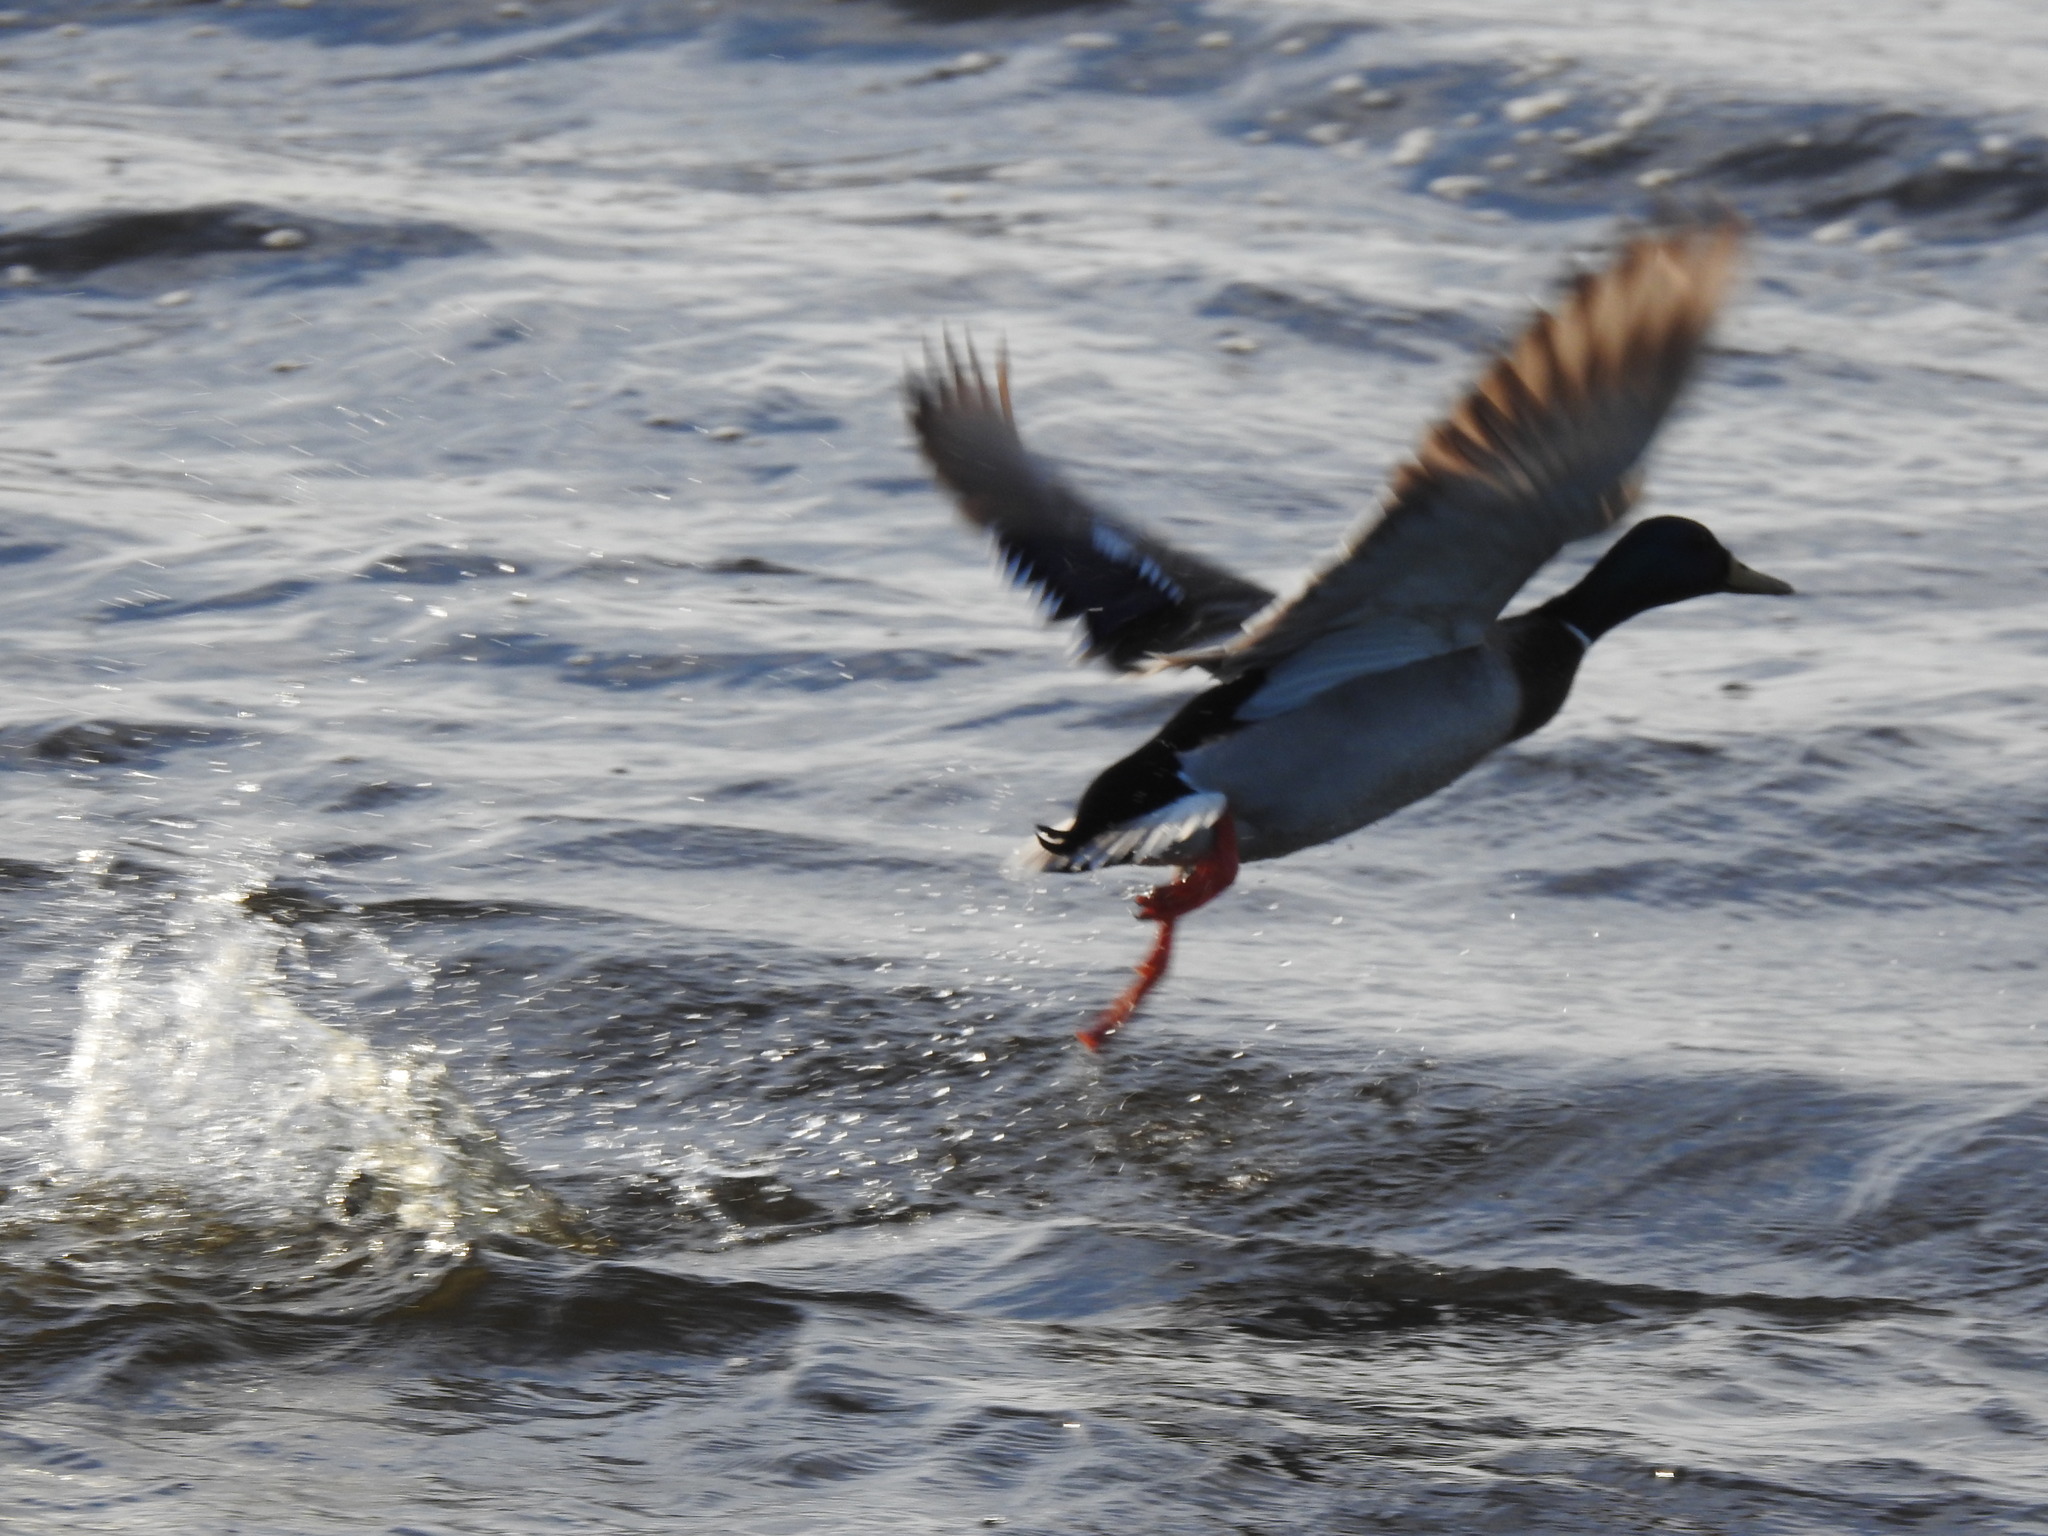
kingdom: Animalia
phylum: Chordata
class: Aves
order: Anseriformes
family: Anatidae
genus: Anas
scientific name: Anas platyrhynchos
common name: Mallard
